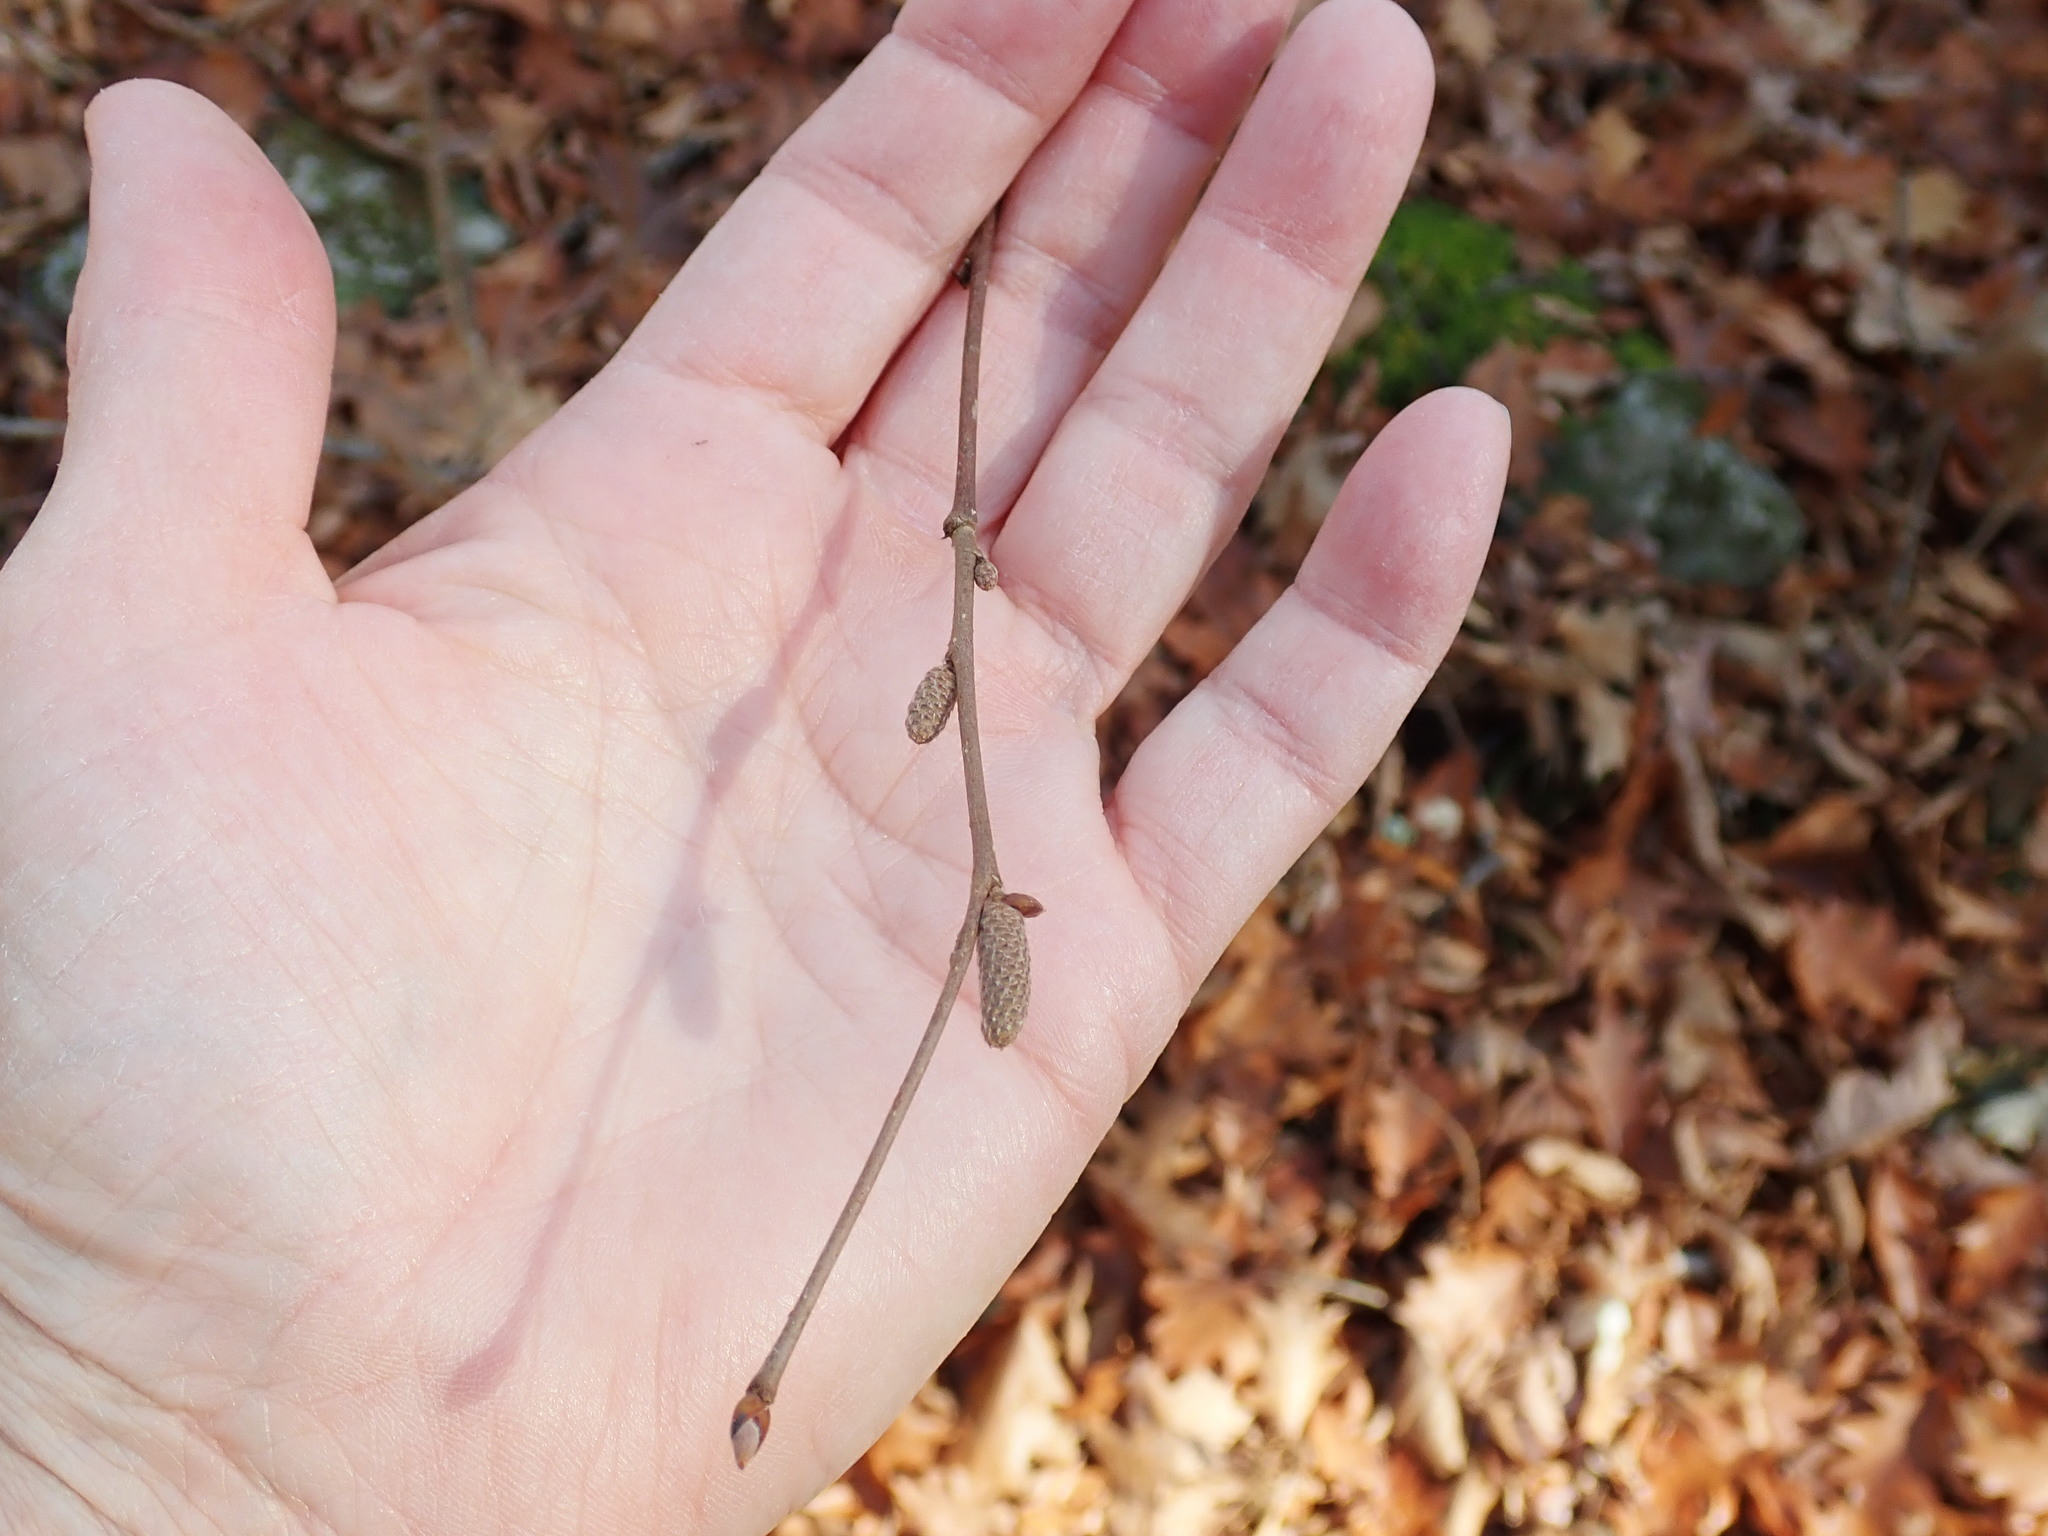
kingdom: Plantae
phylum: Tracheophyta
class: Magnoliopsida
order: Fagales
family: Betulaceae
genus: Corylus
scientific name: Corylus cornuta
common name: Beaked hazel
